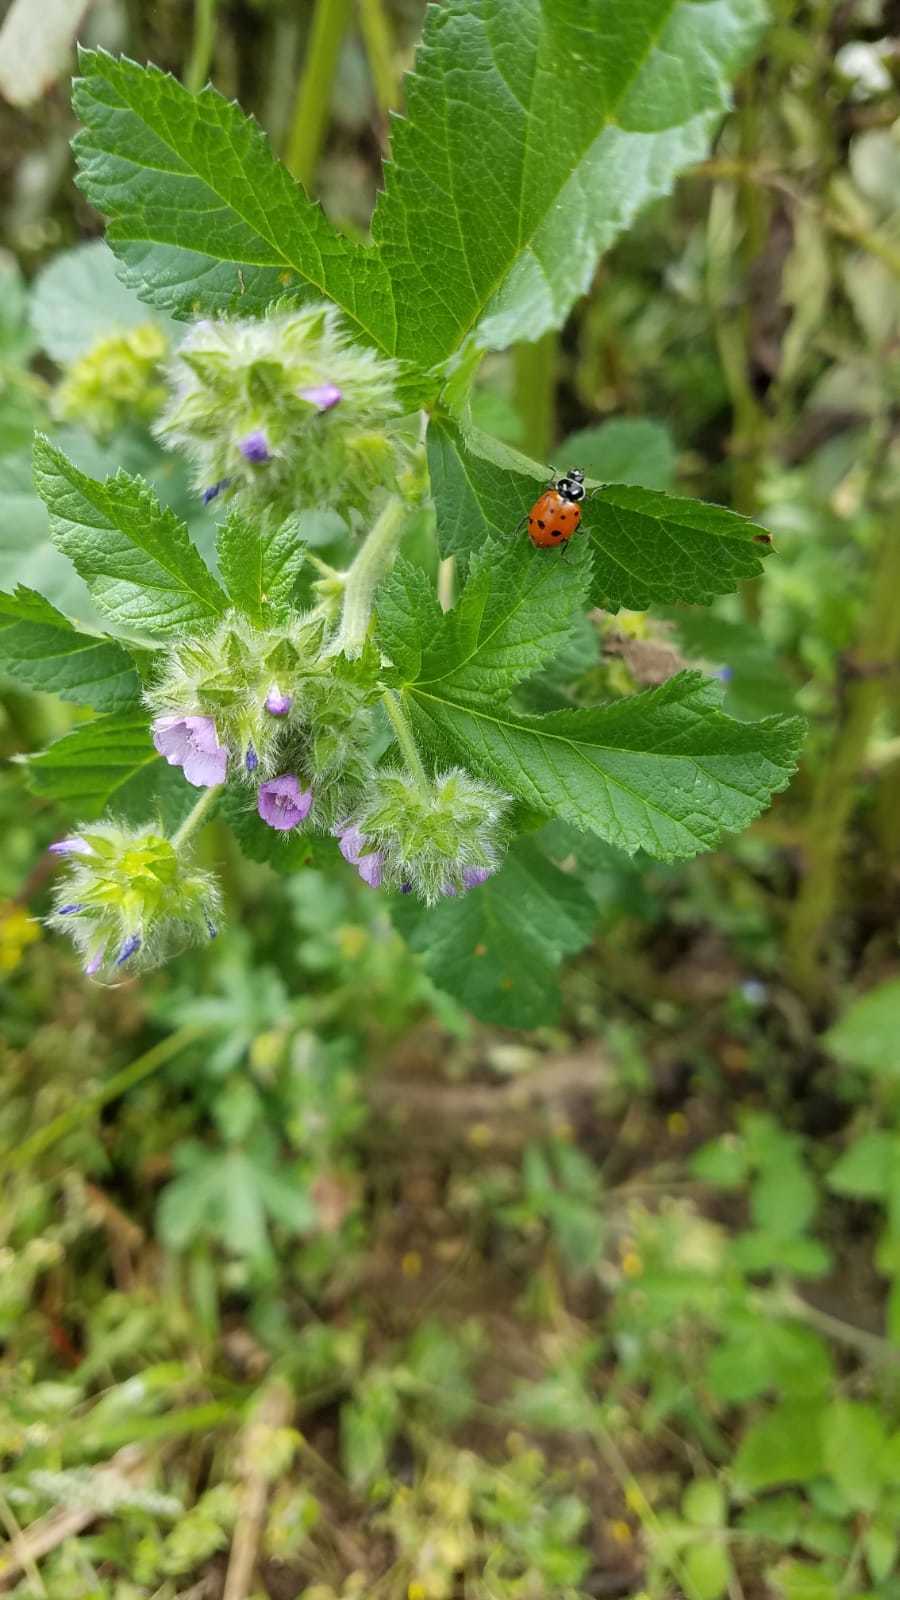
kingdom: Animalia
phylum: Arthropoda
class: Insecta
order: Coleoptera
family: Coccinellidae
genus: Hippodamia
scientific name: Hippodamia convergens
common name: Convergent lady beetle
